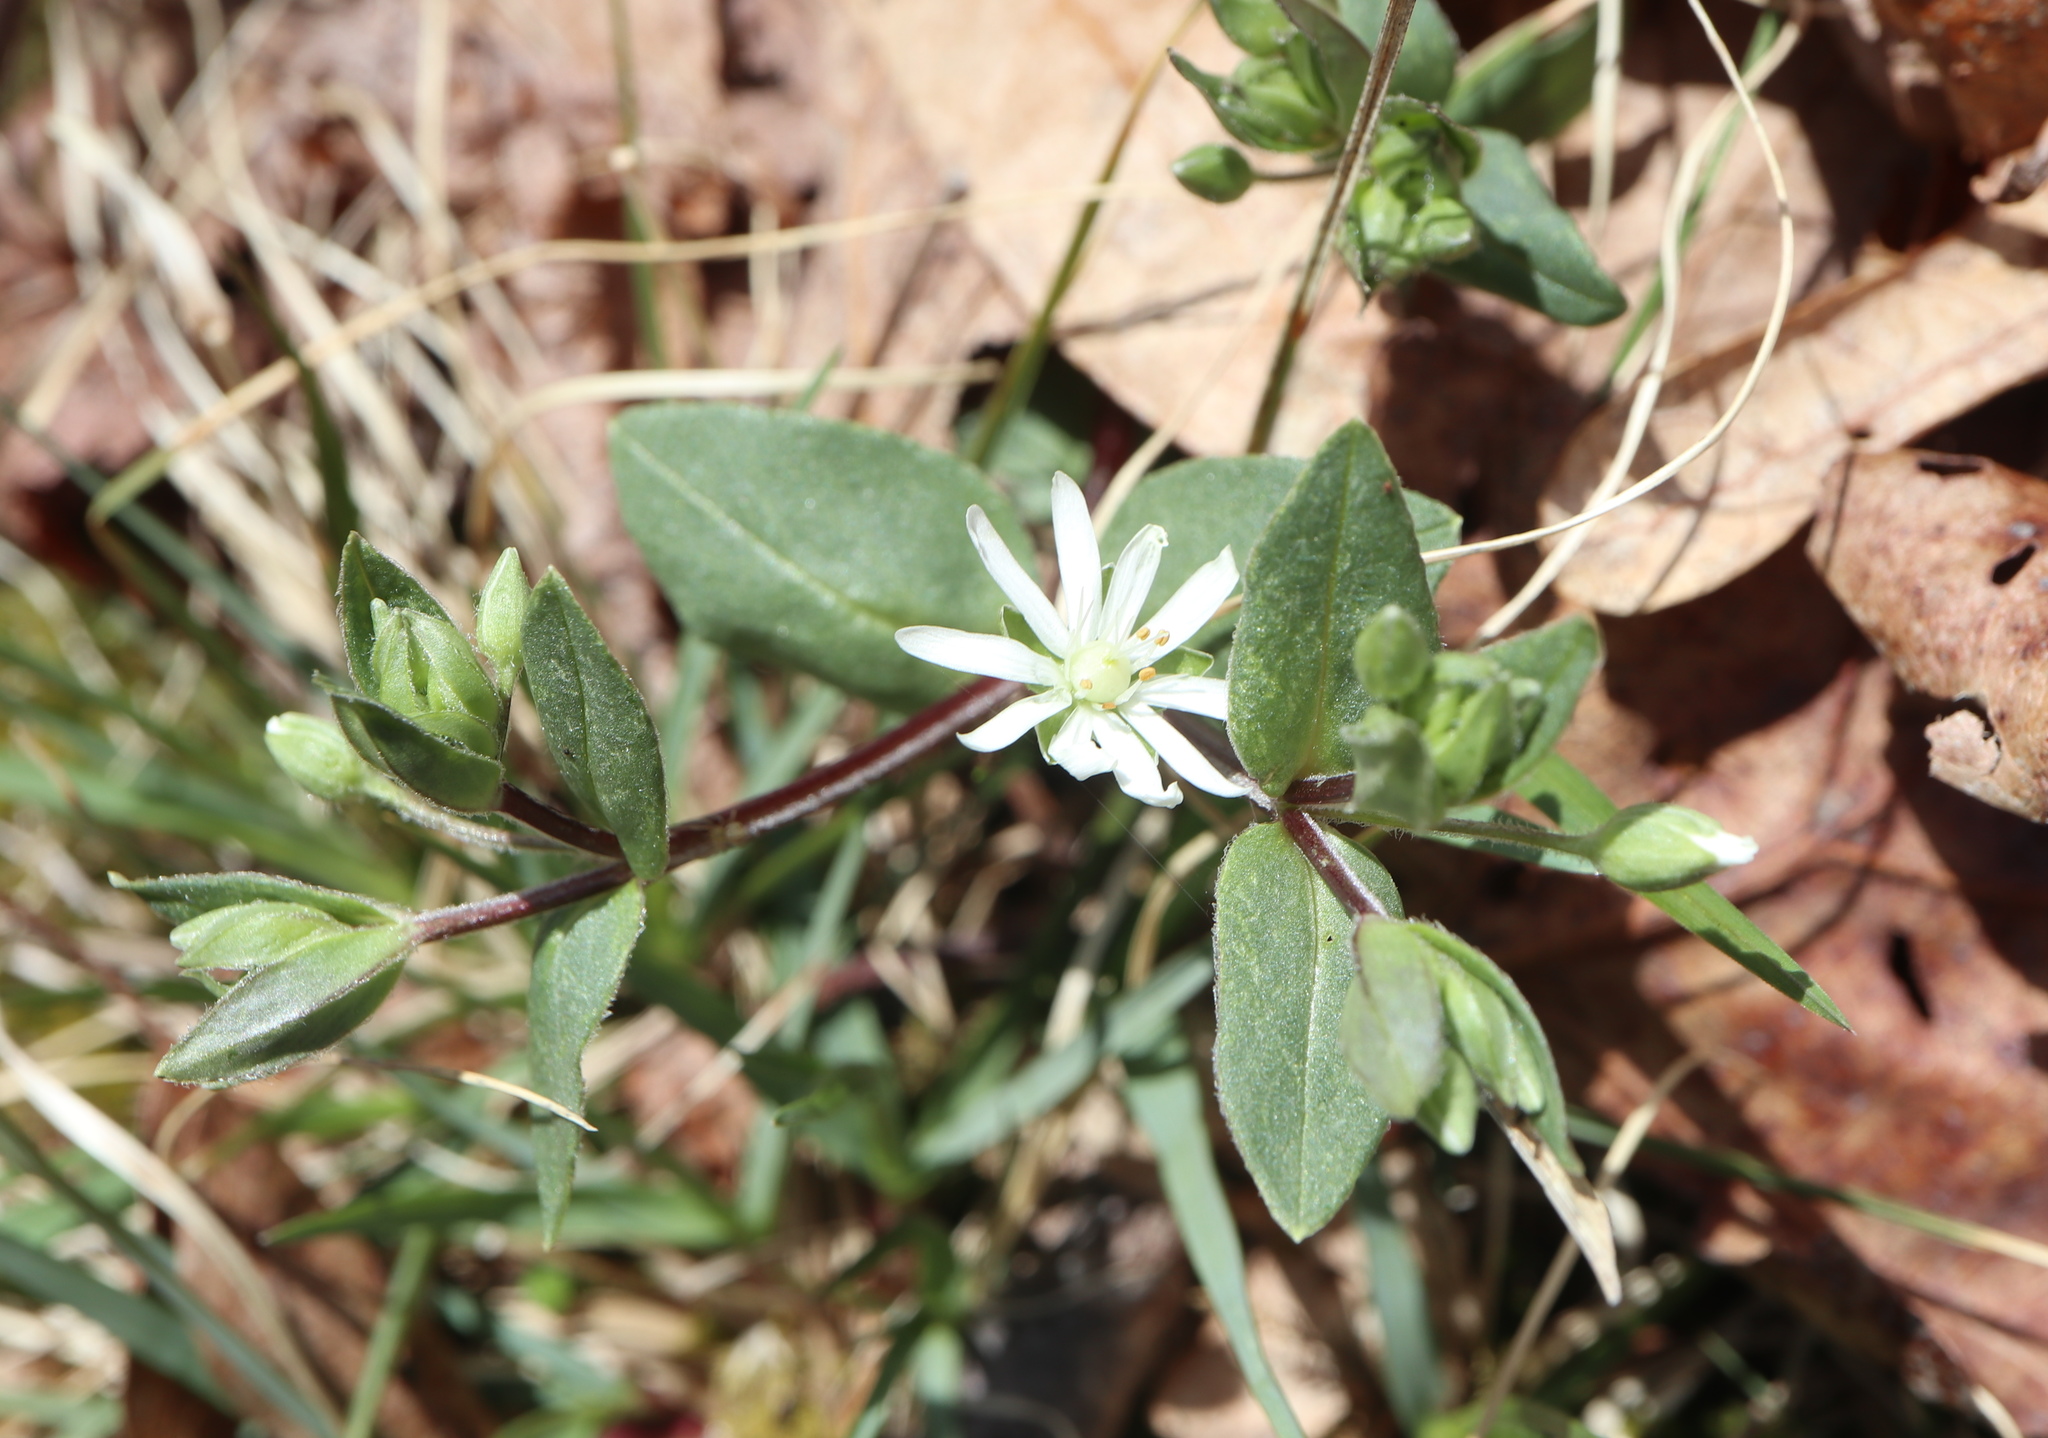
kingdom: Plantae
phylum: Tracheophyta
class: Magnoliopsida
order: Caryophyllales
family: Caryophyllaceae
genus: Stellaria
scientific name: Stellaria pubera
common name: Star chickweed
